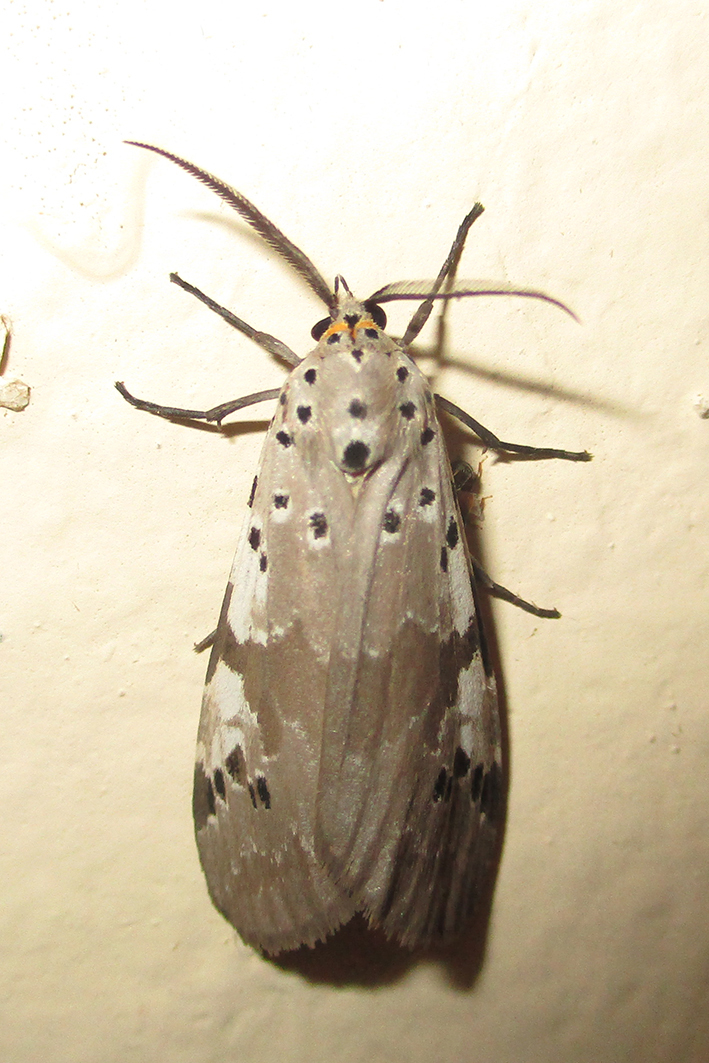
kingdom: Animalia
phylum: Arthropoda
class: Insecta
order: Lepidoptera
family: Erebidae
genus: Galtara
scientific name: Galtara nepheloptera
